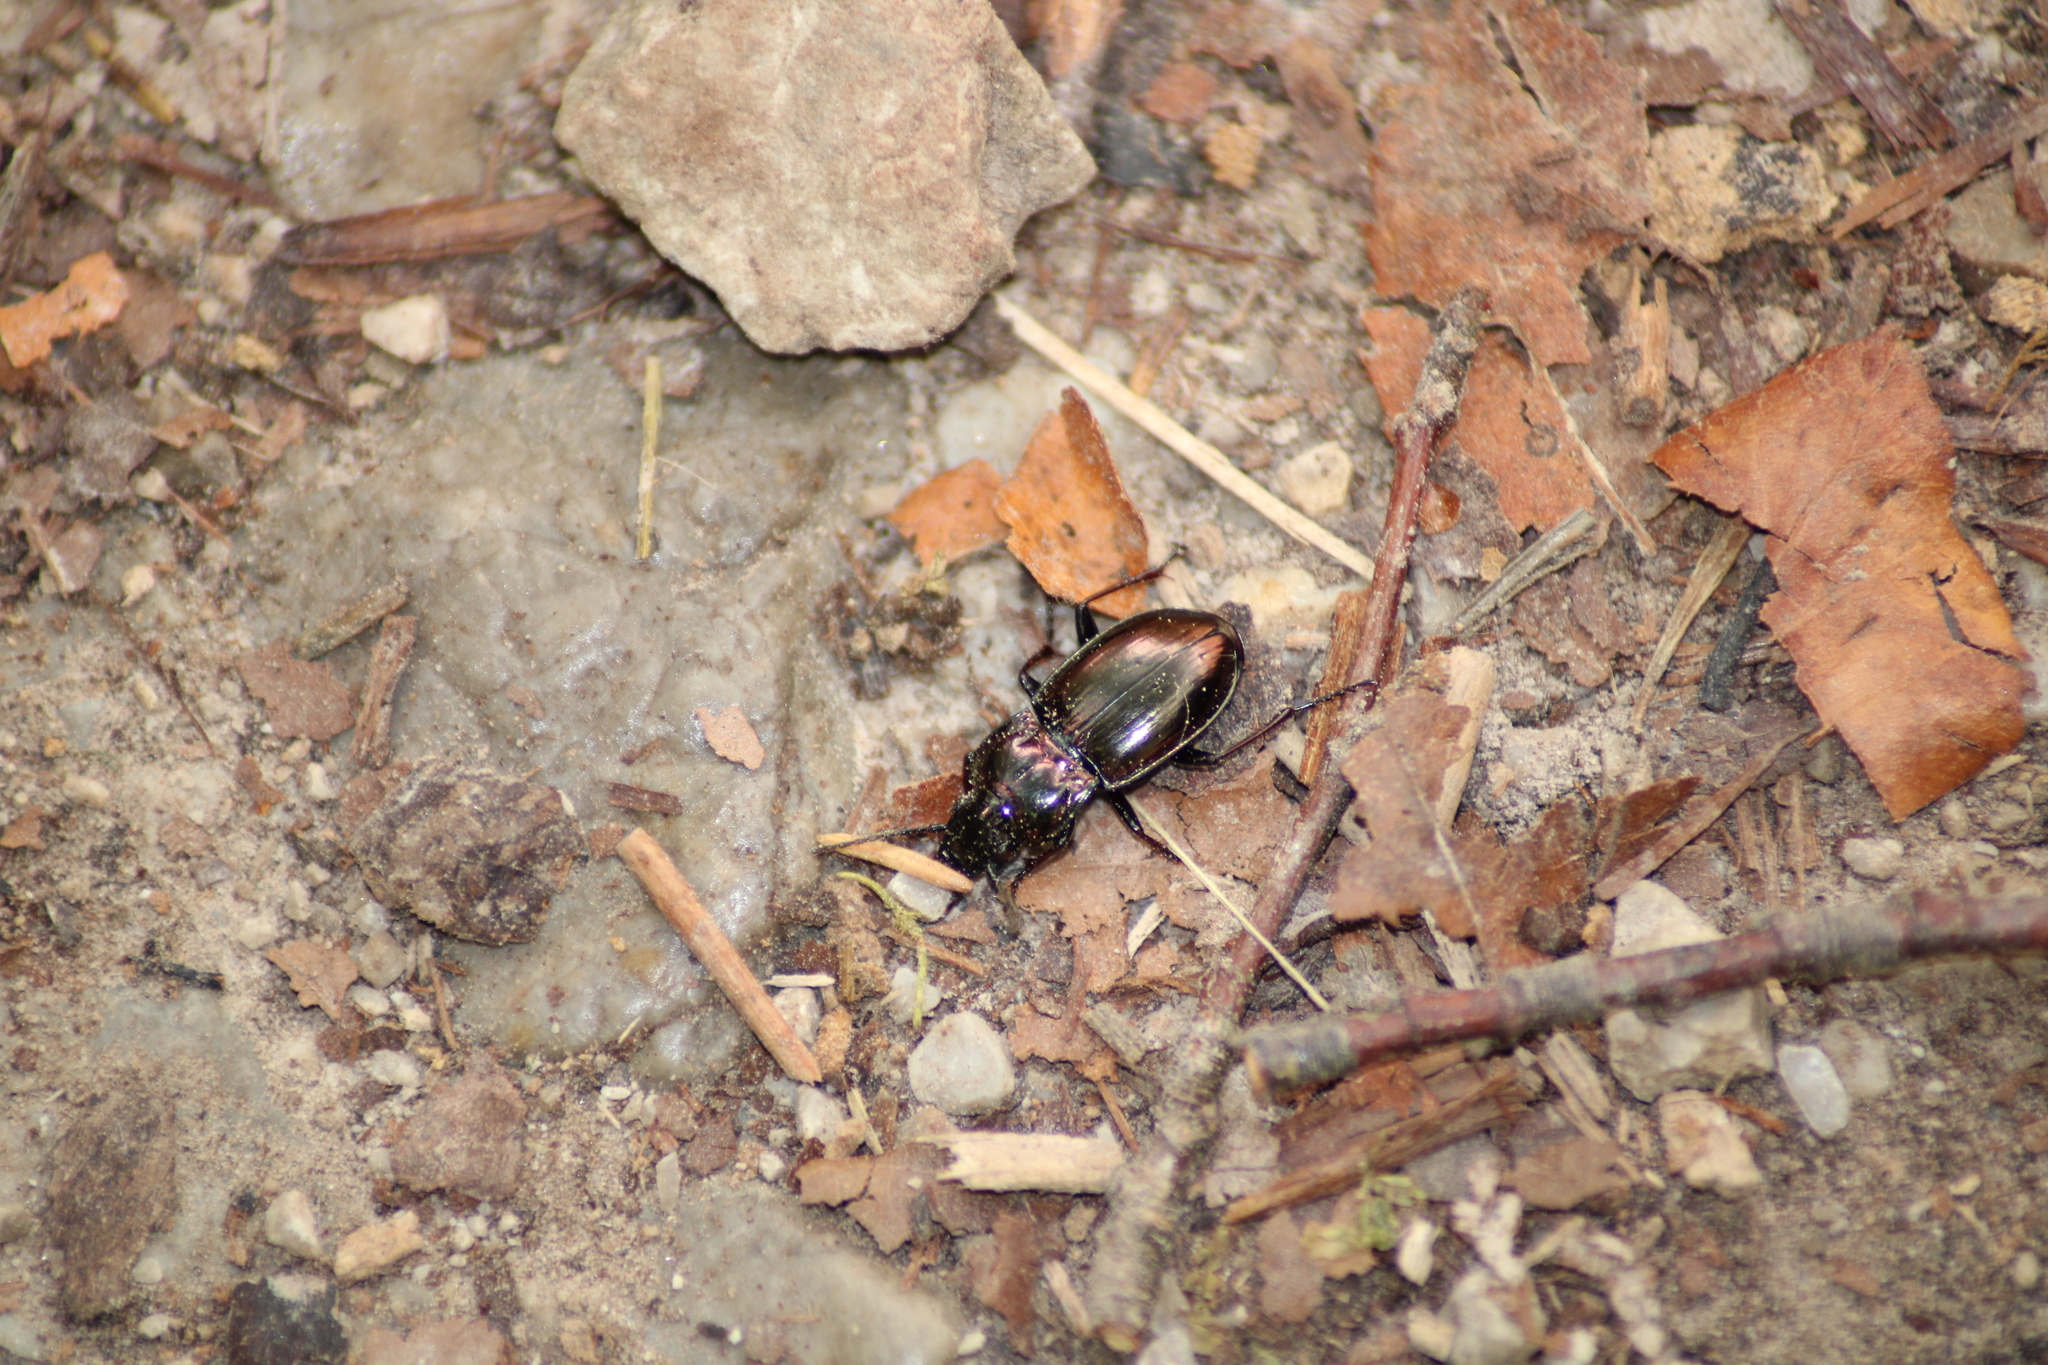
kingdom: Animalia
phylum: Arthropoda
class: Insecta
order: Coleoptera
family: Carabidae
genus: Pterostichus
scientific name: Pterostichus burmeisteri
